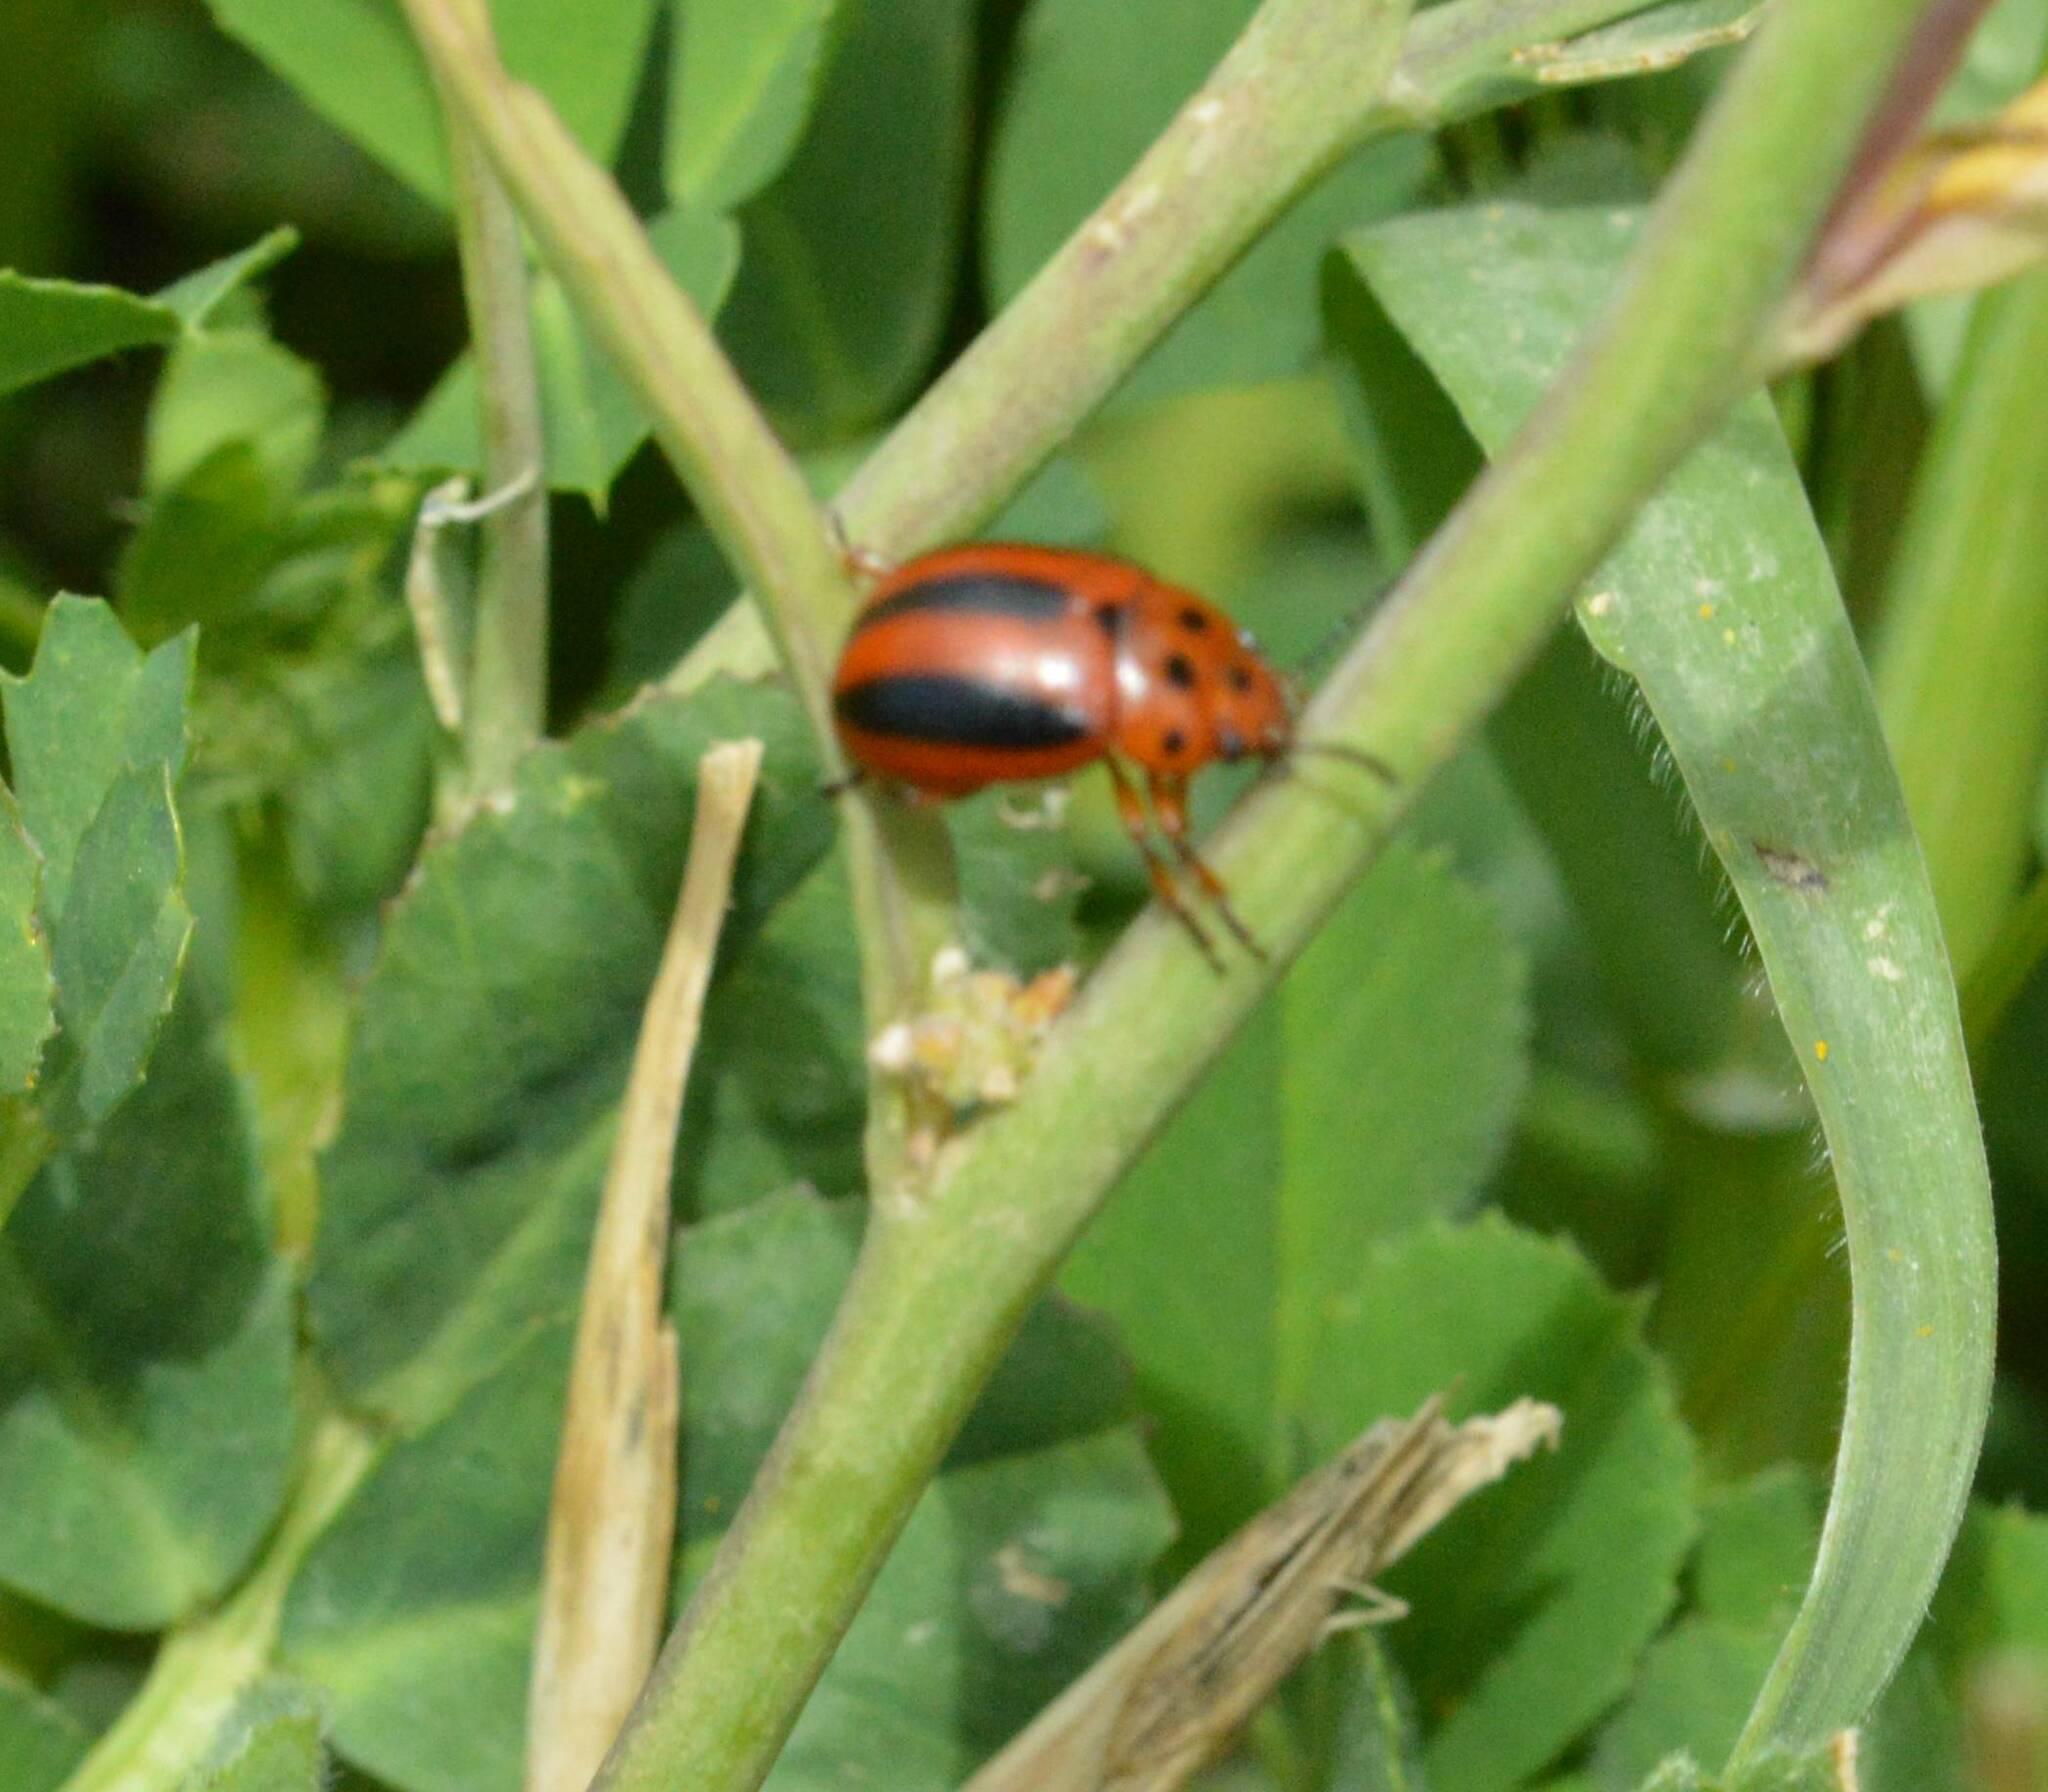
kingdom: Animalia
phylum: Arthropoda
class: Insecta
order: Coleoptera
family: Chrysomelidae
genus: Entomoscelis
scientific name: Entomoscelis rumicis
